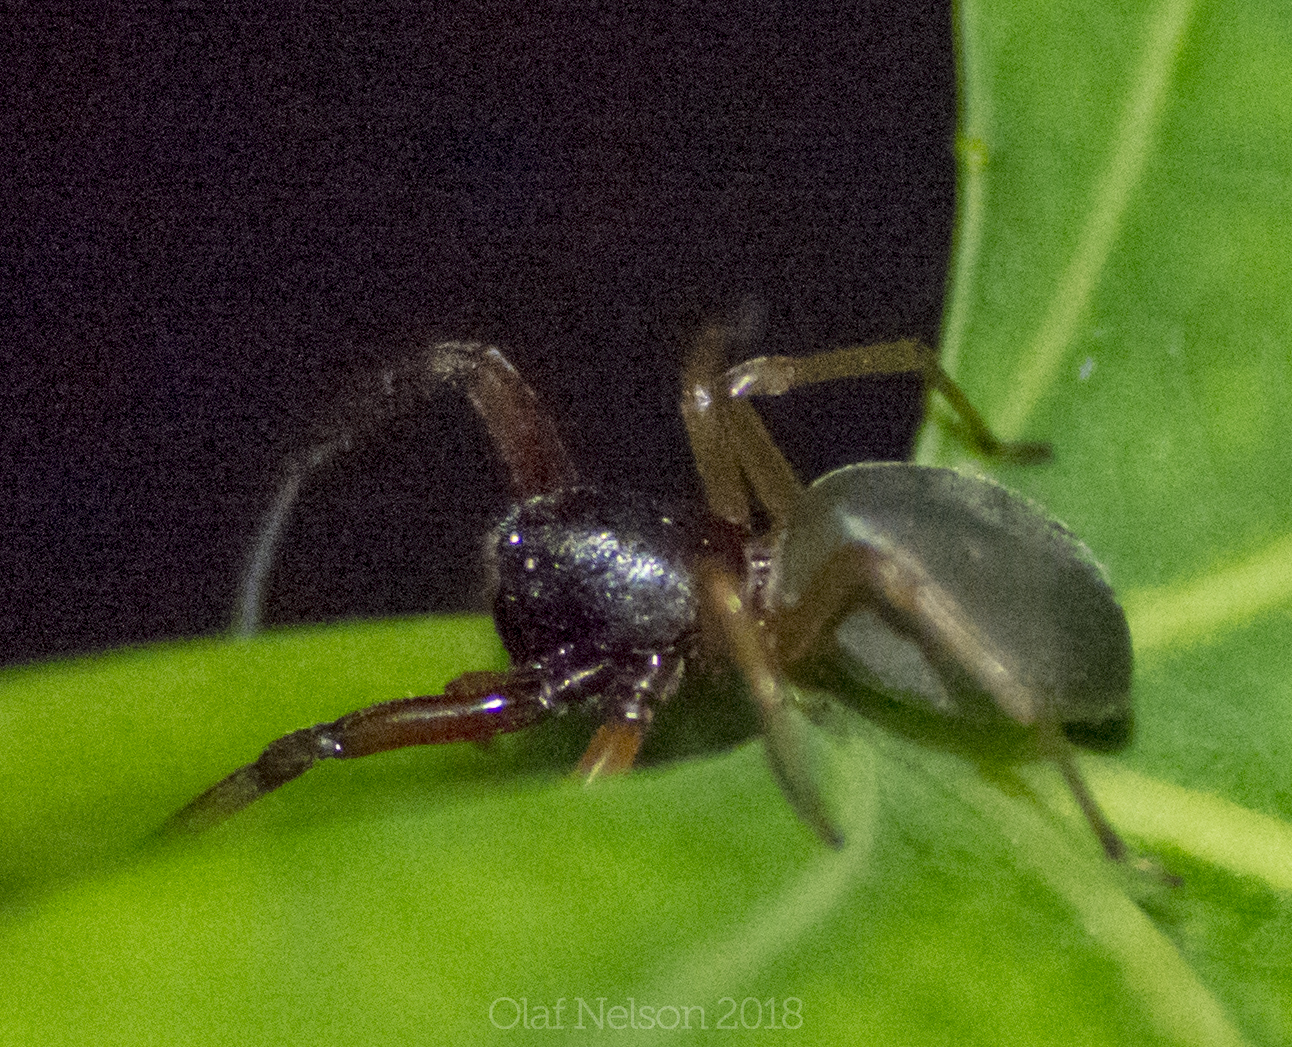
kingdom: Animalia
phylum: Arthropoda
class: Arachnida
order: Araneae
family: Trachelidae
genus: Trachelas
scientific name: Trachelas tranquillus
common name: Broad-faced sac spider
